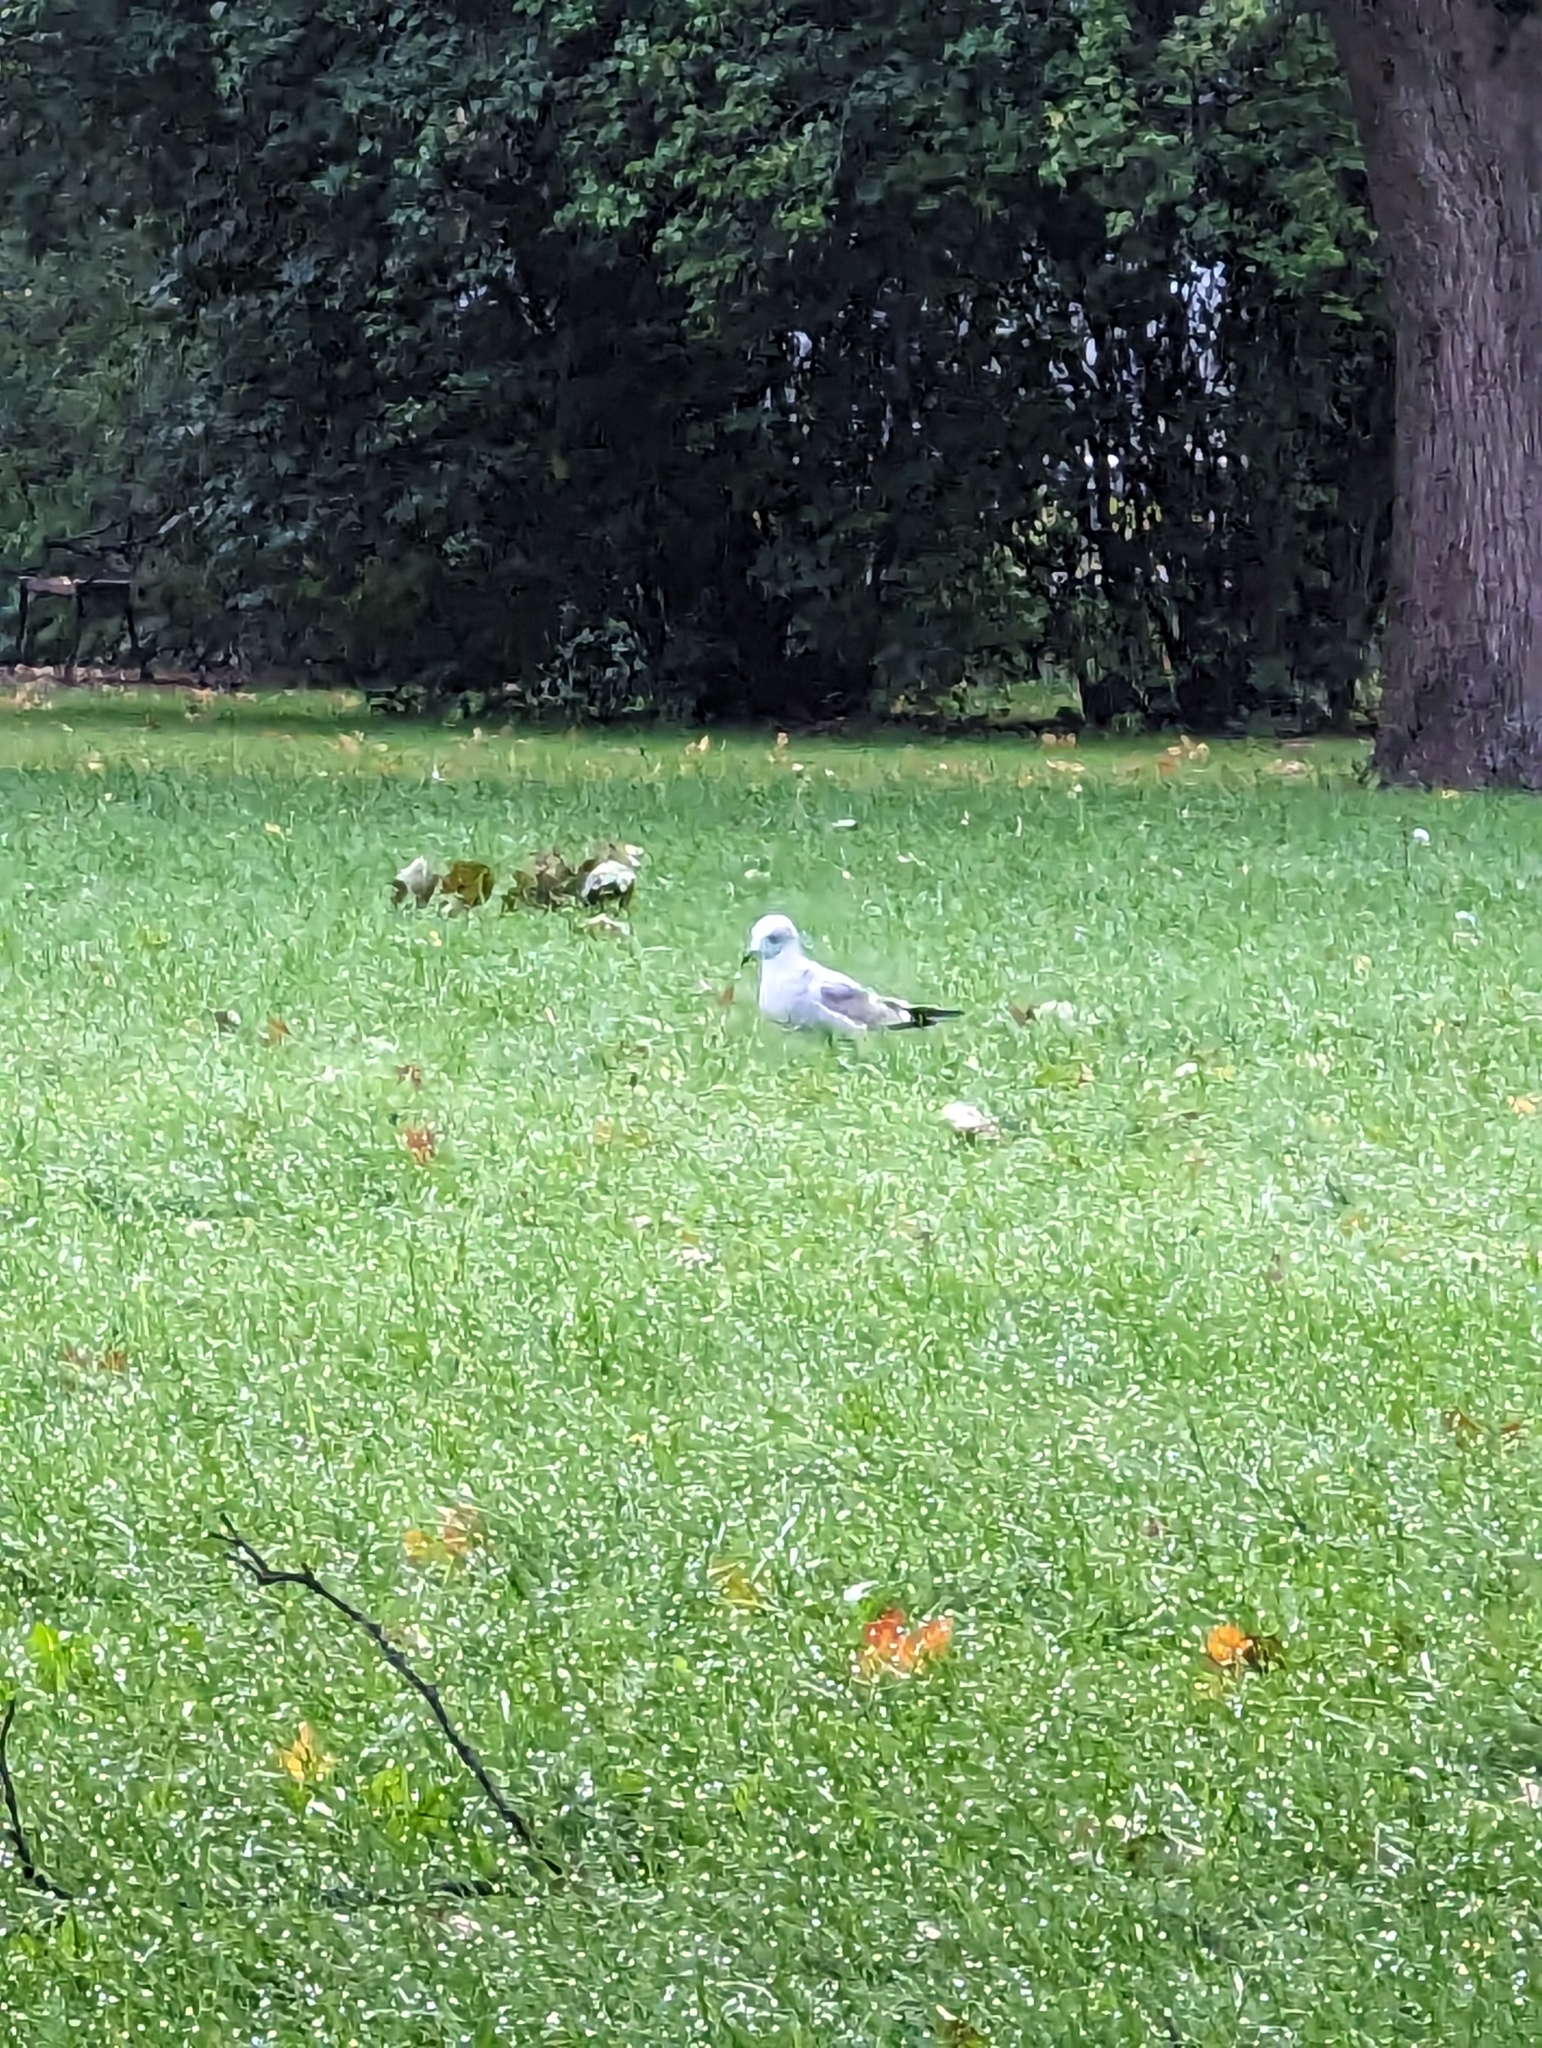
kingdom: Animalia
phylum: Chordata
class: Aves
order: Charadriiformes
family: Laridae
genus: Larus
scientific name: Larus canus
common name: Mew gull
